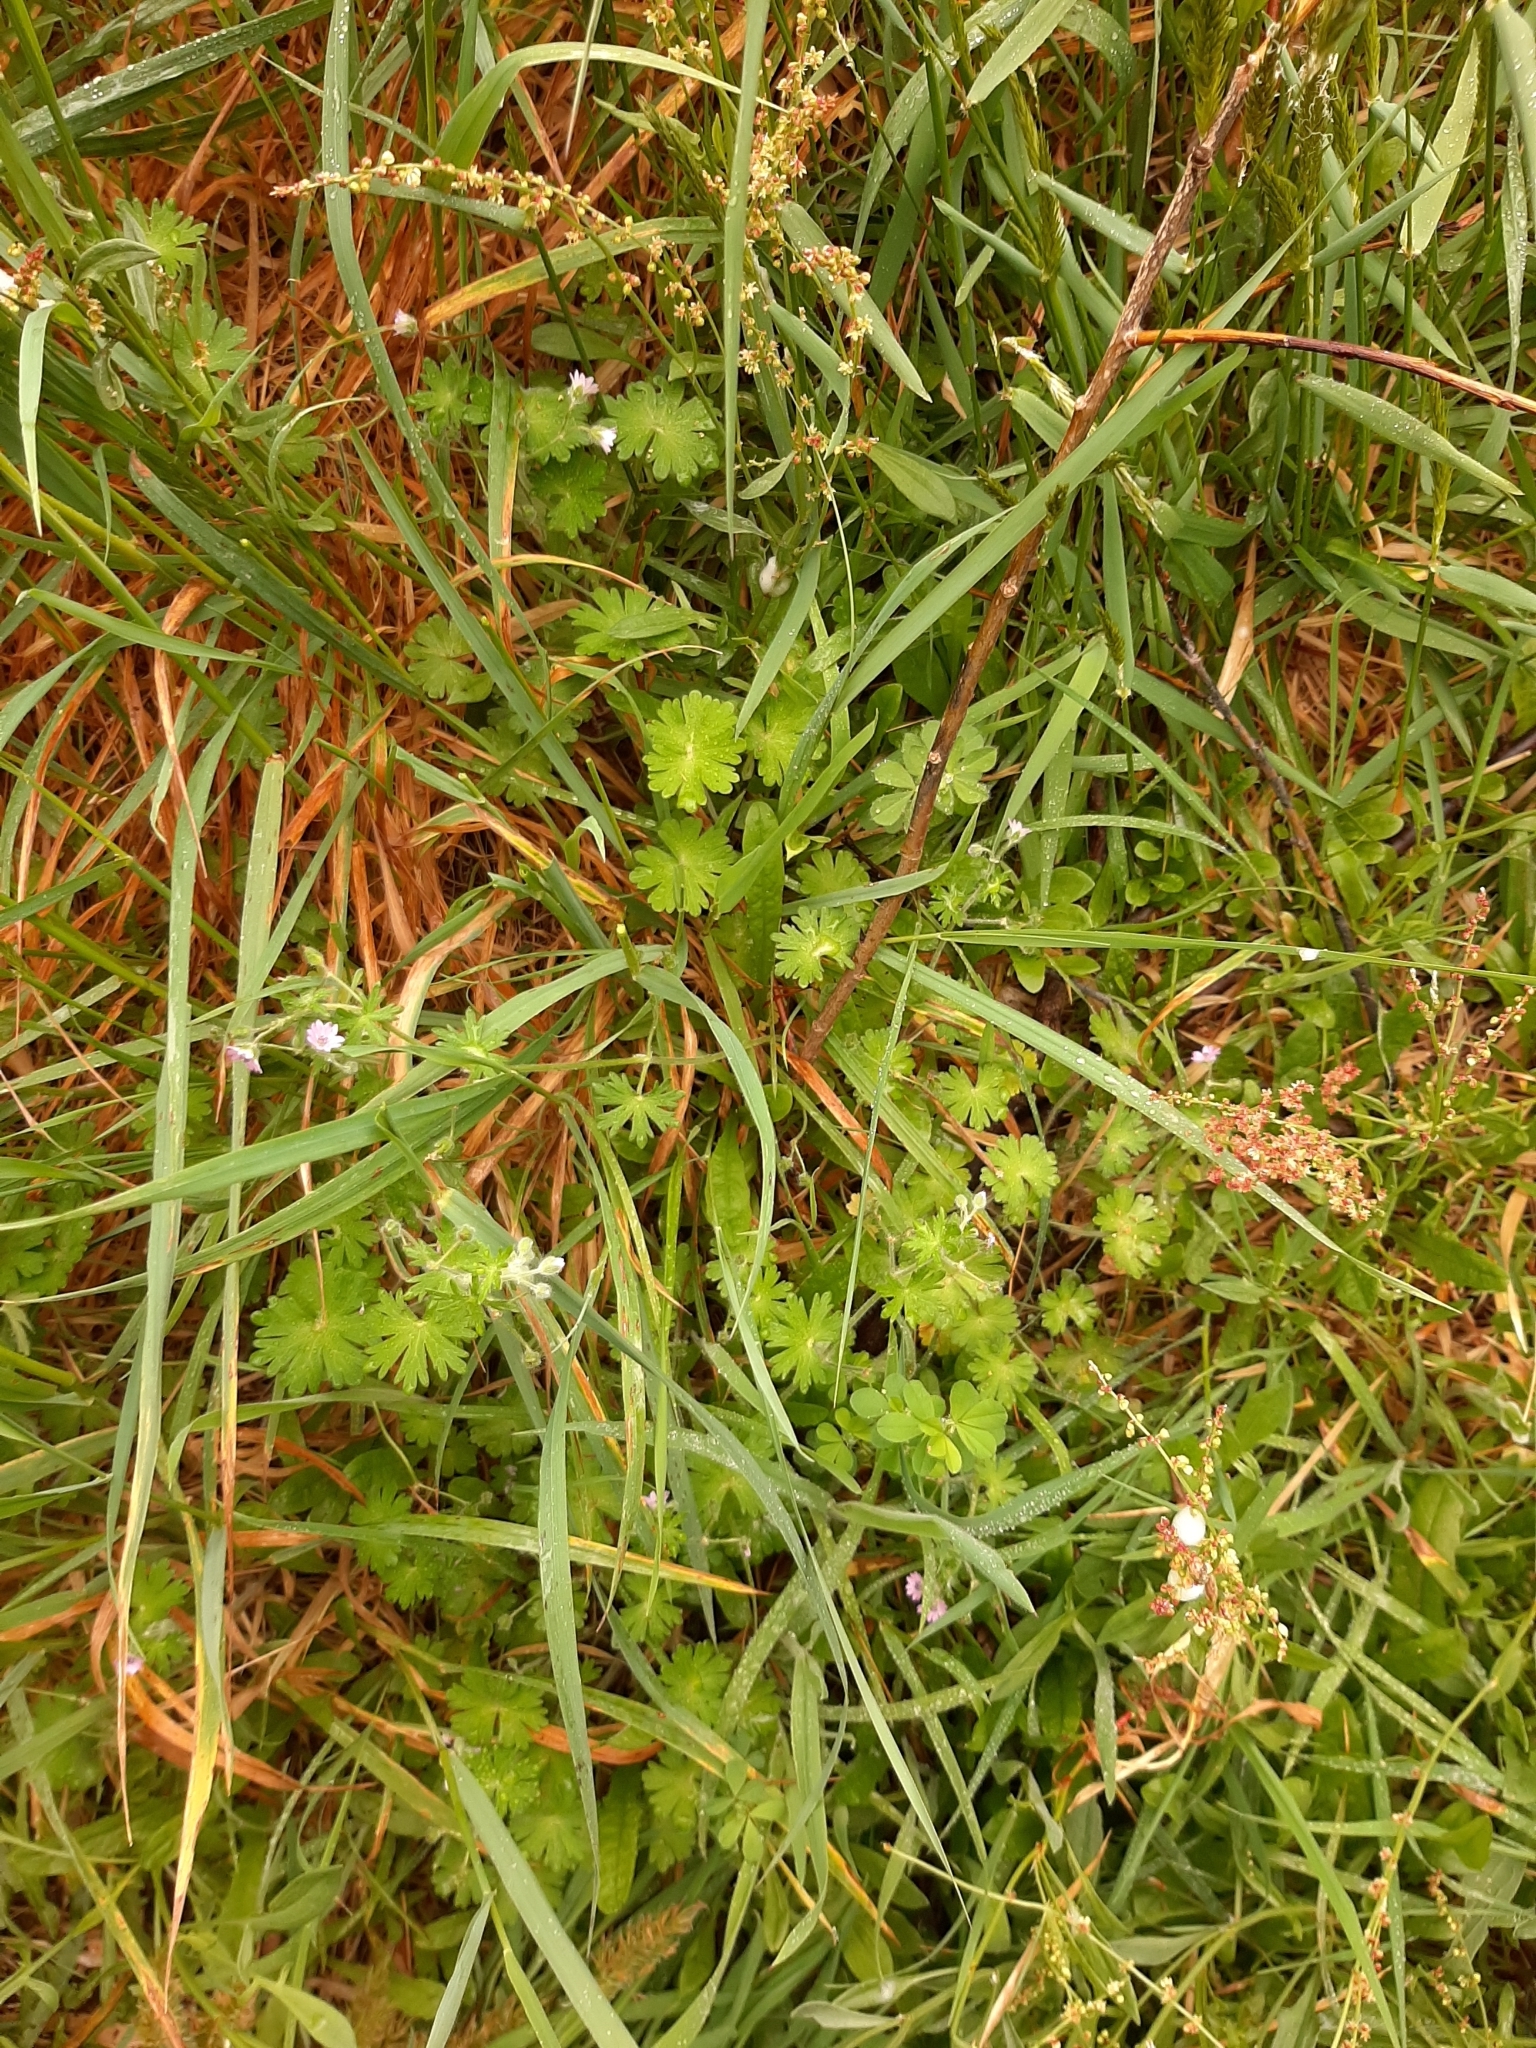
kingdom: Plantae
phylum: Tracheophyta
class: Magnoliopsida
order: Geraniales
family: Geraniaceae
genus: Geranium
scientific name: Geranium molle
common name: Dove's-foot crane's-bill
